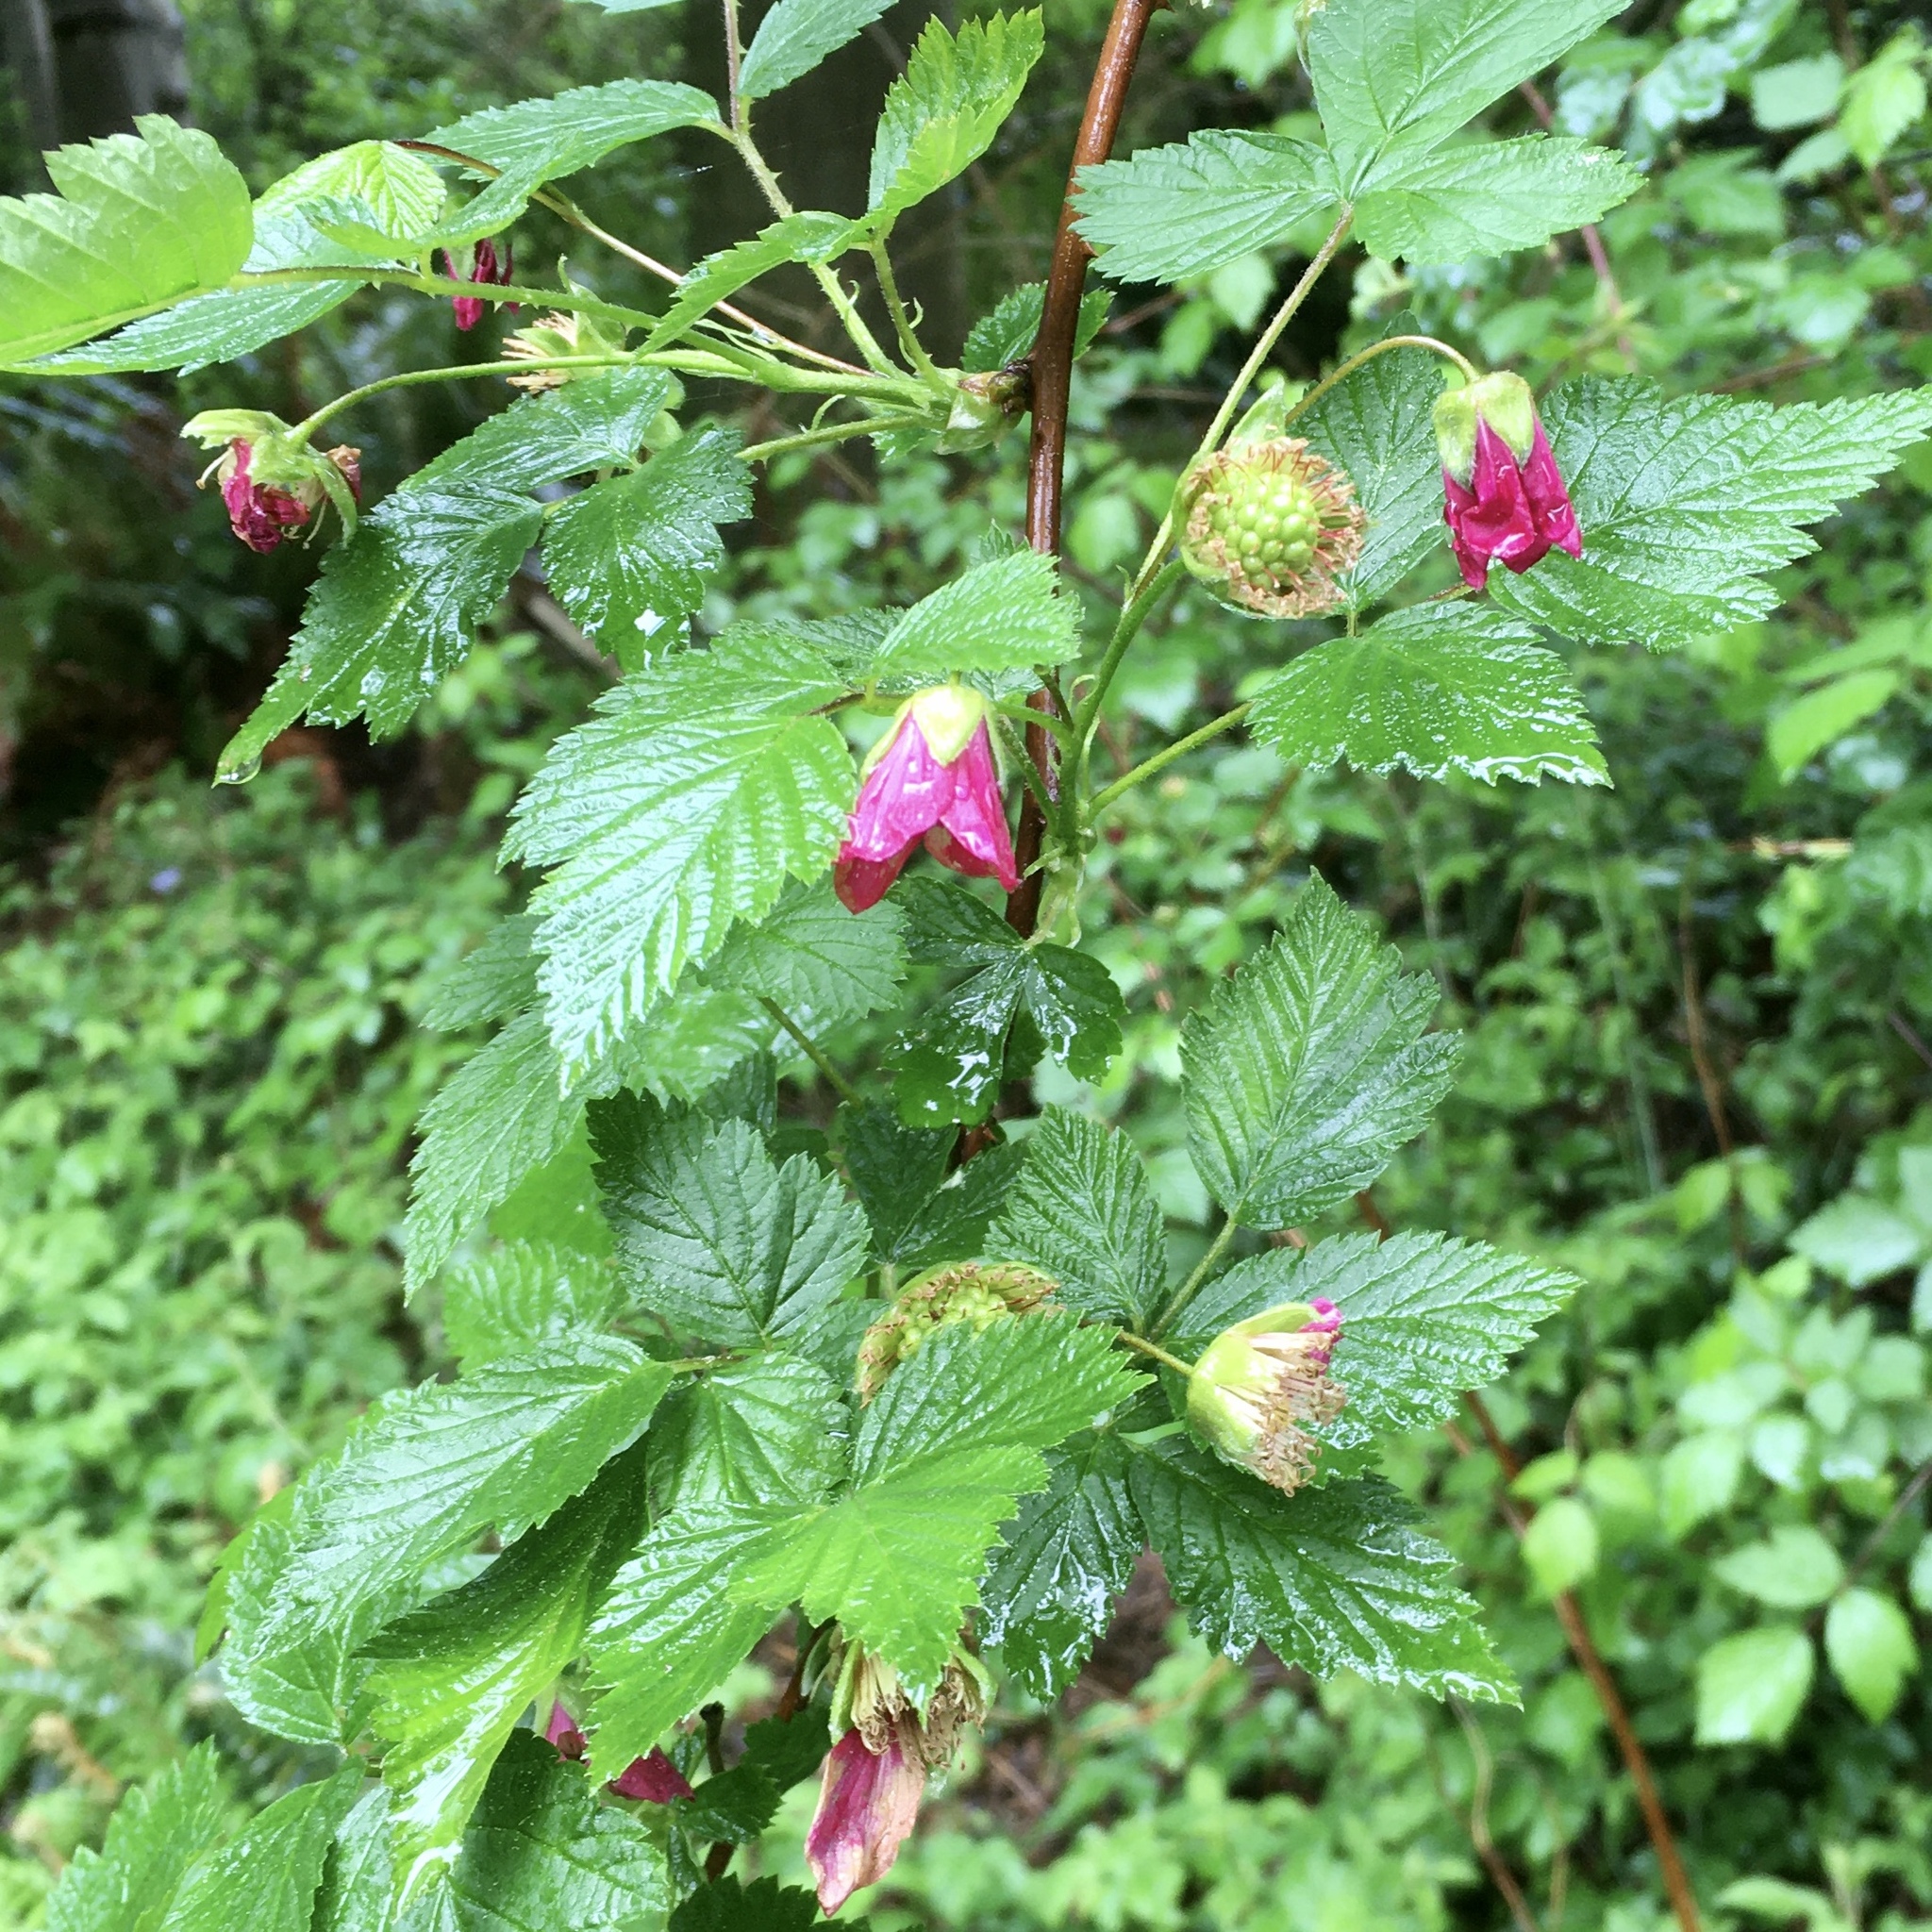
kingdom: Plantae
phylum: Tracheophyta
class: Magnoliopsida
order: Rosales
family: Rosaceae
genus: Rubus
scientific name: Rubus spectabilis
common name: Salmonberry
